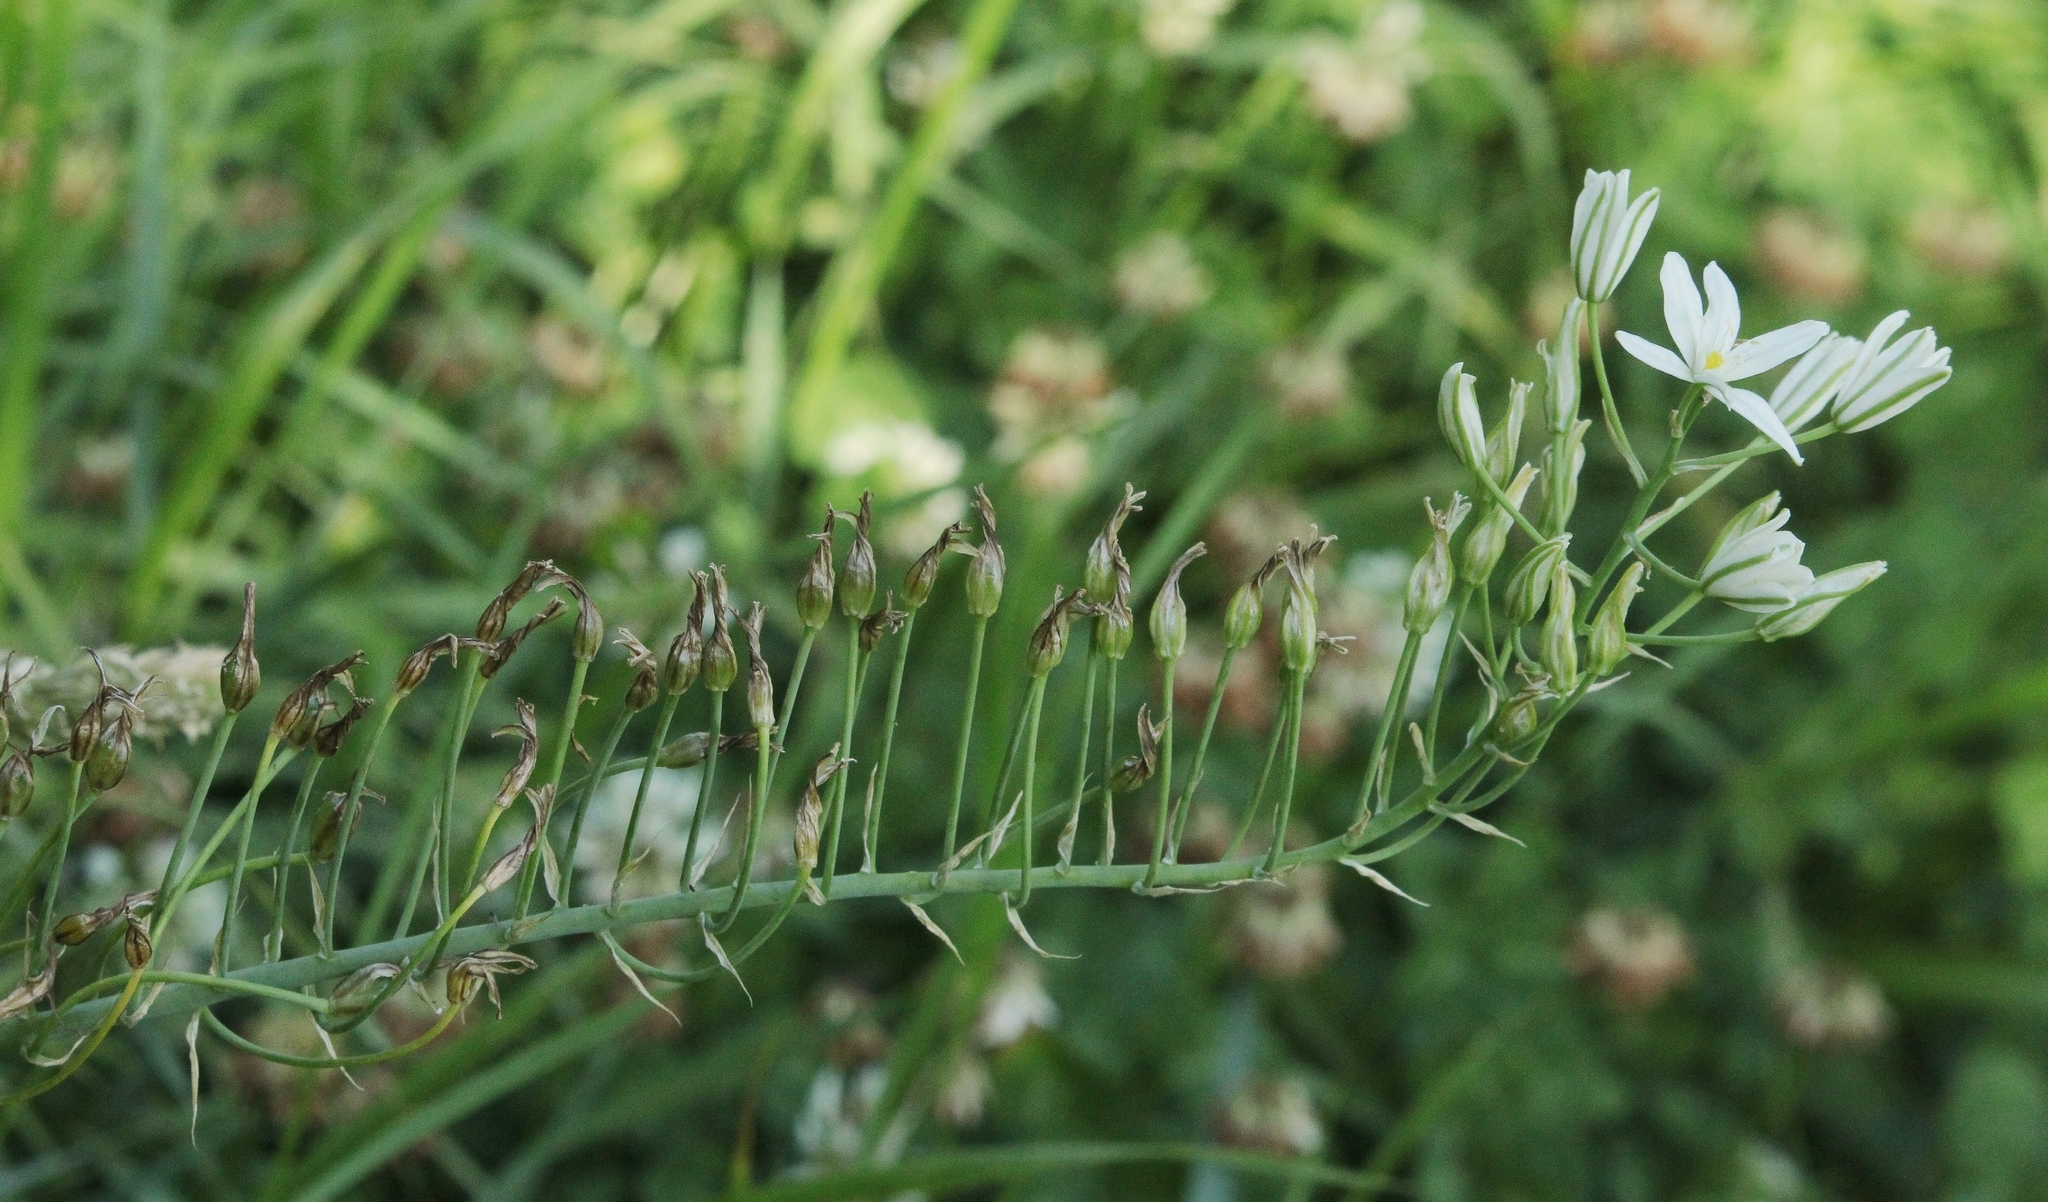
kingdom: Plantae
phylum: Tracheophyta
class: Liliopsida
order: Asparagales
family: Asparagaceae
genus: Ornithogalum
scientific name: Ornithogalum ponticum
